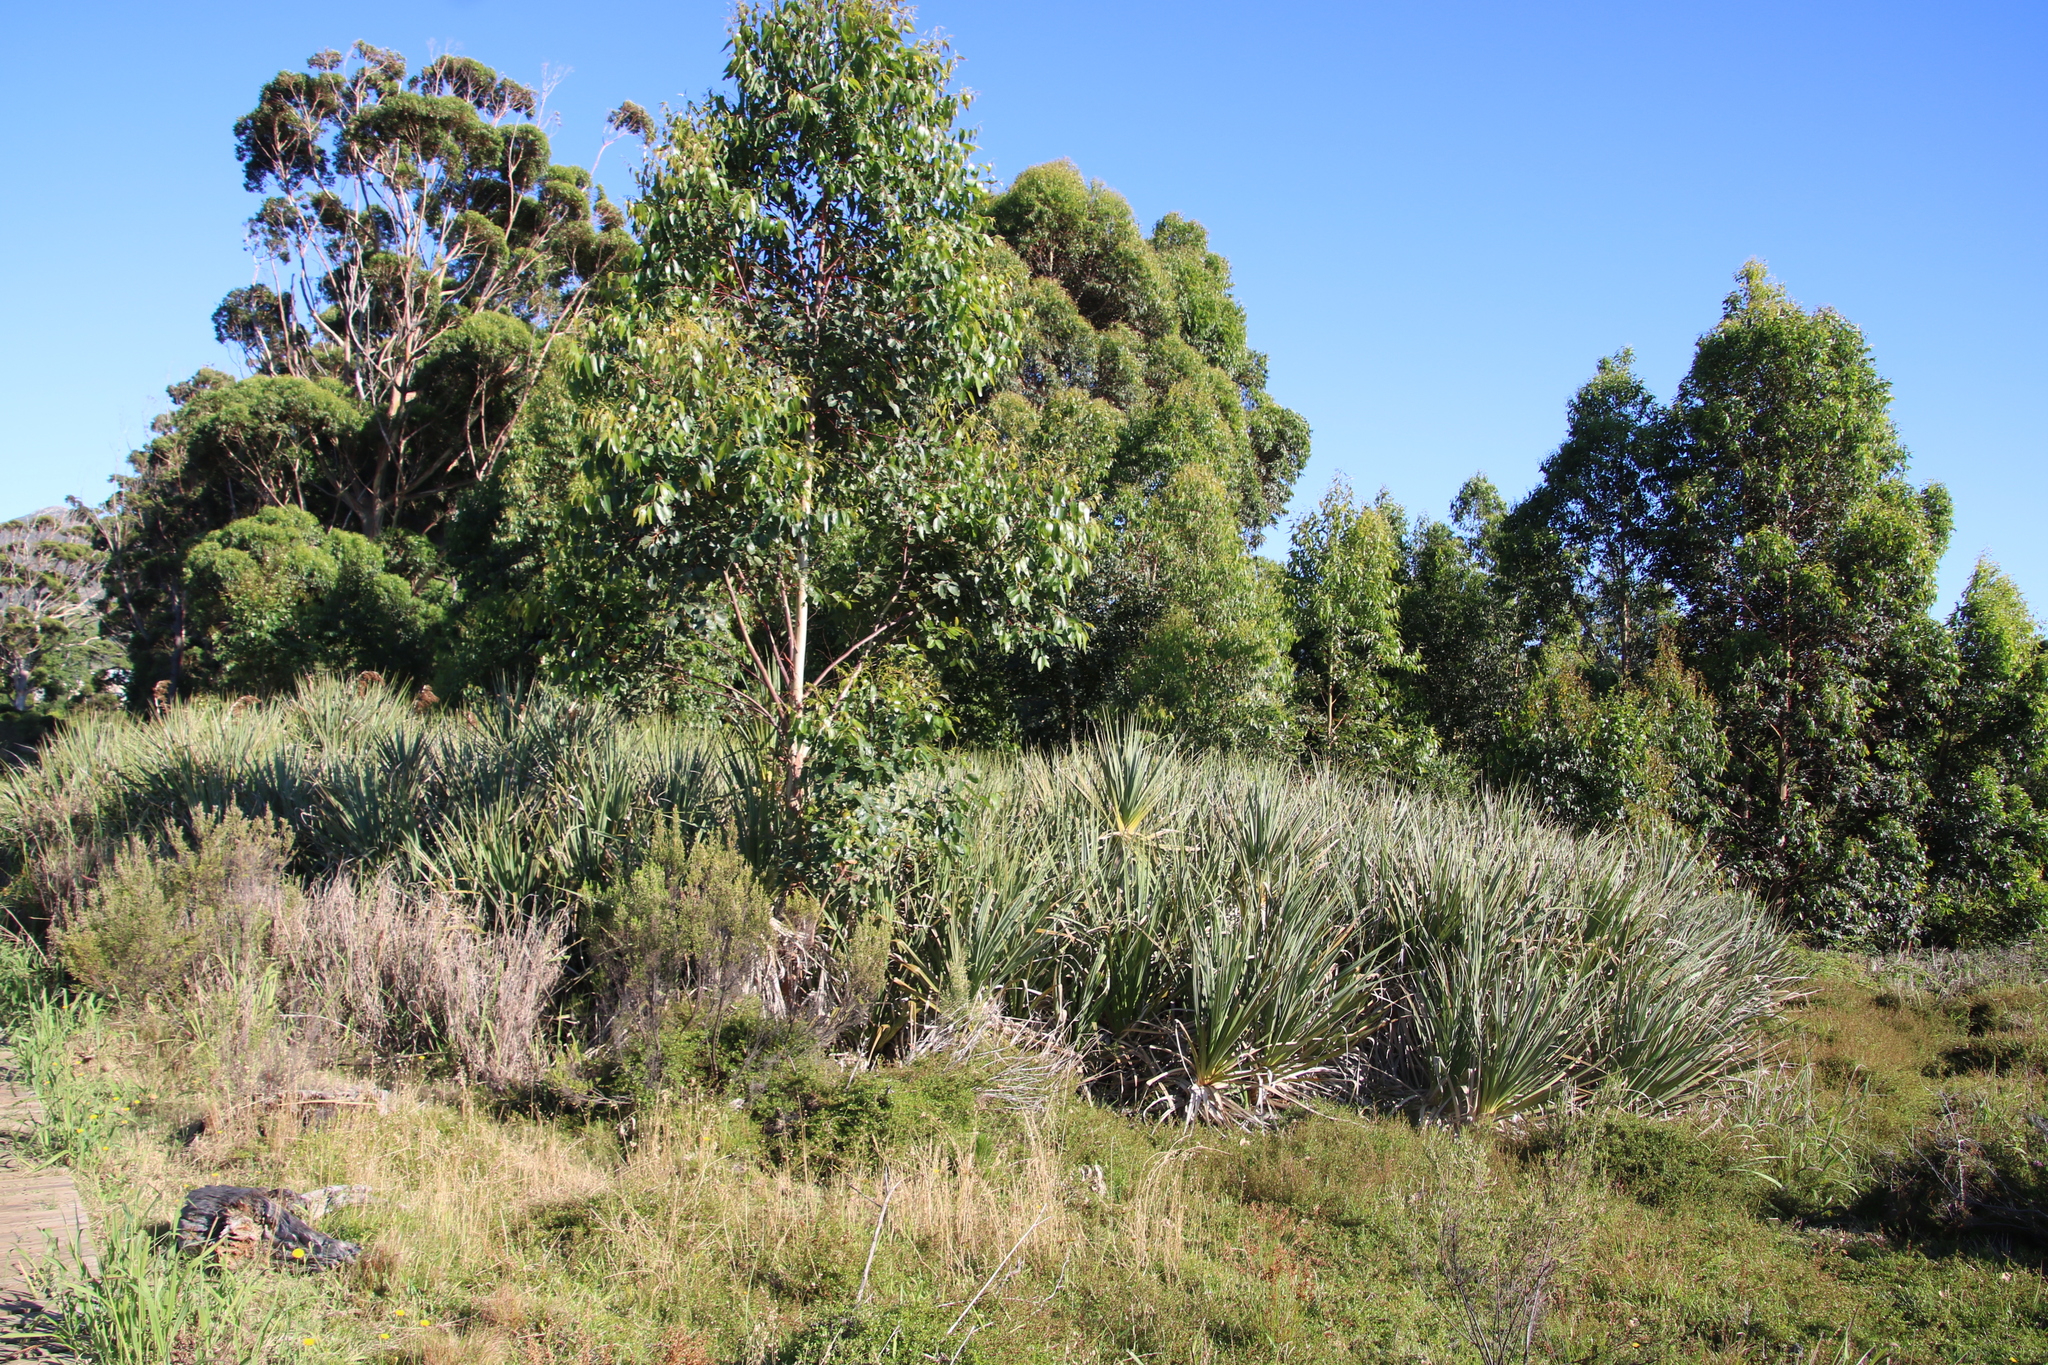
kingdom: Plantae
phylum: Tracheophyta
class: Liliopsida
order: Poales
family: Thurniaceae
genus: Prionium
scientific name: Prionium serratum
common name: Palmiet
